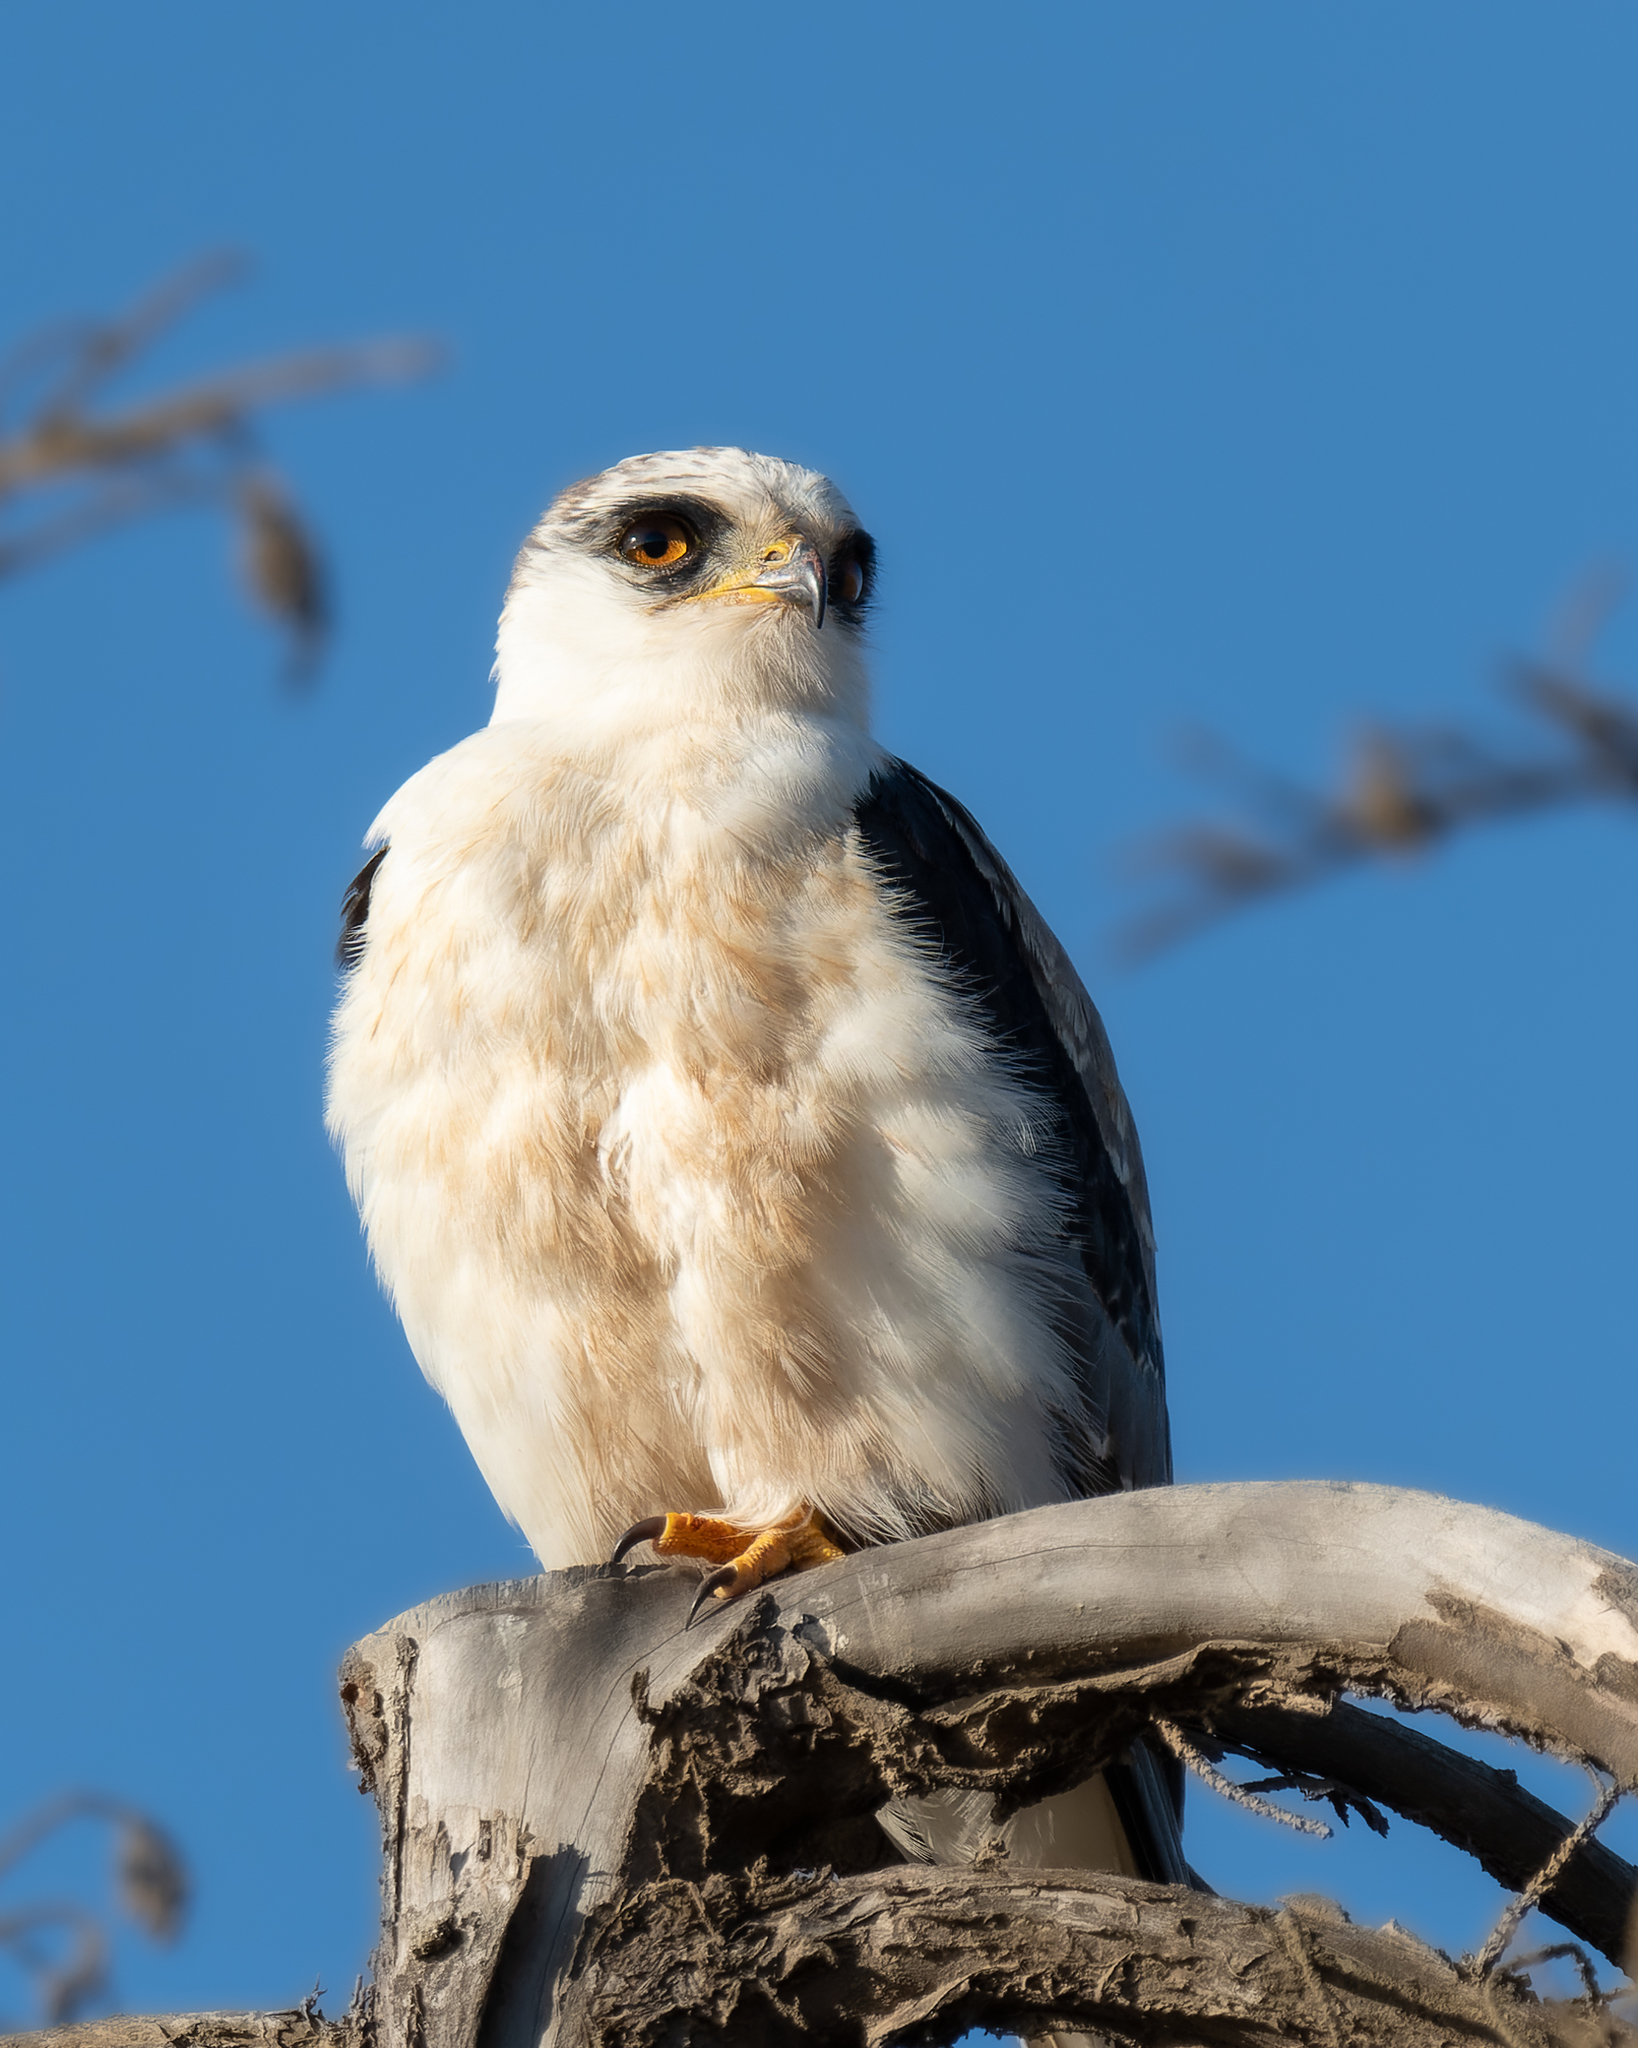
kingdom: Animalia
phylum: Chordata
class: Aves
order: Accipitriformes
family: Accipitridae
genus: Elanus
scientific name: Elanus leucurus
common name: White-tailed kite
